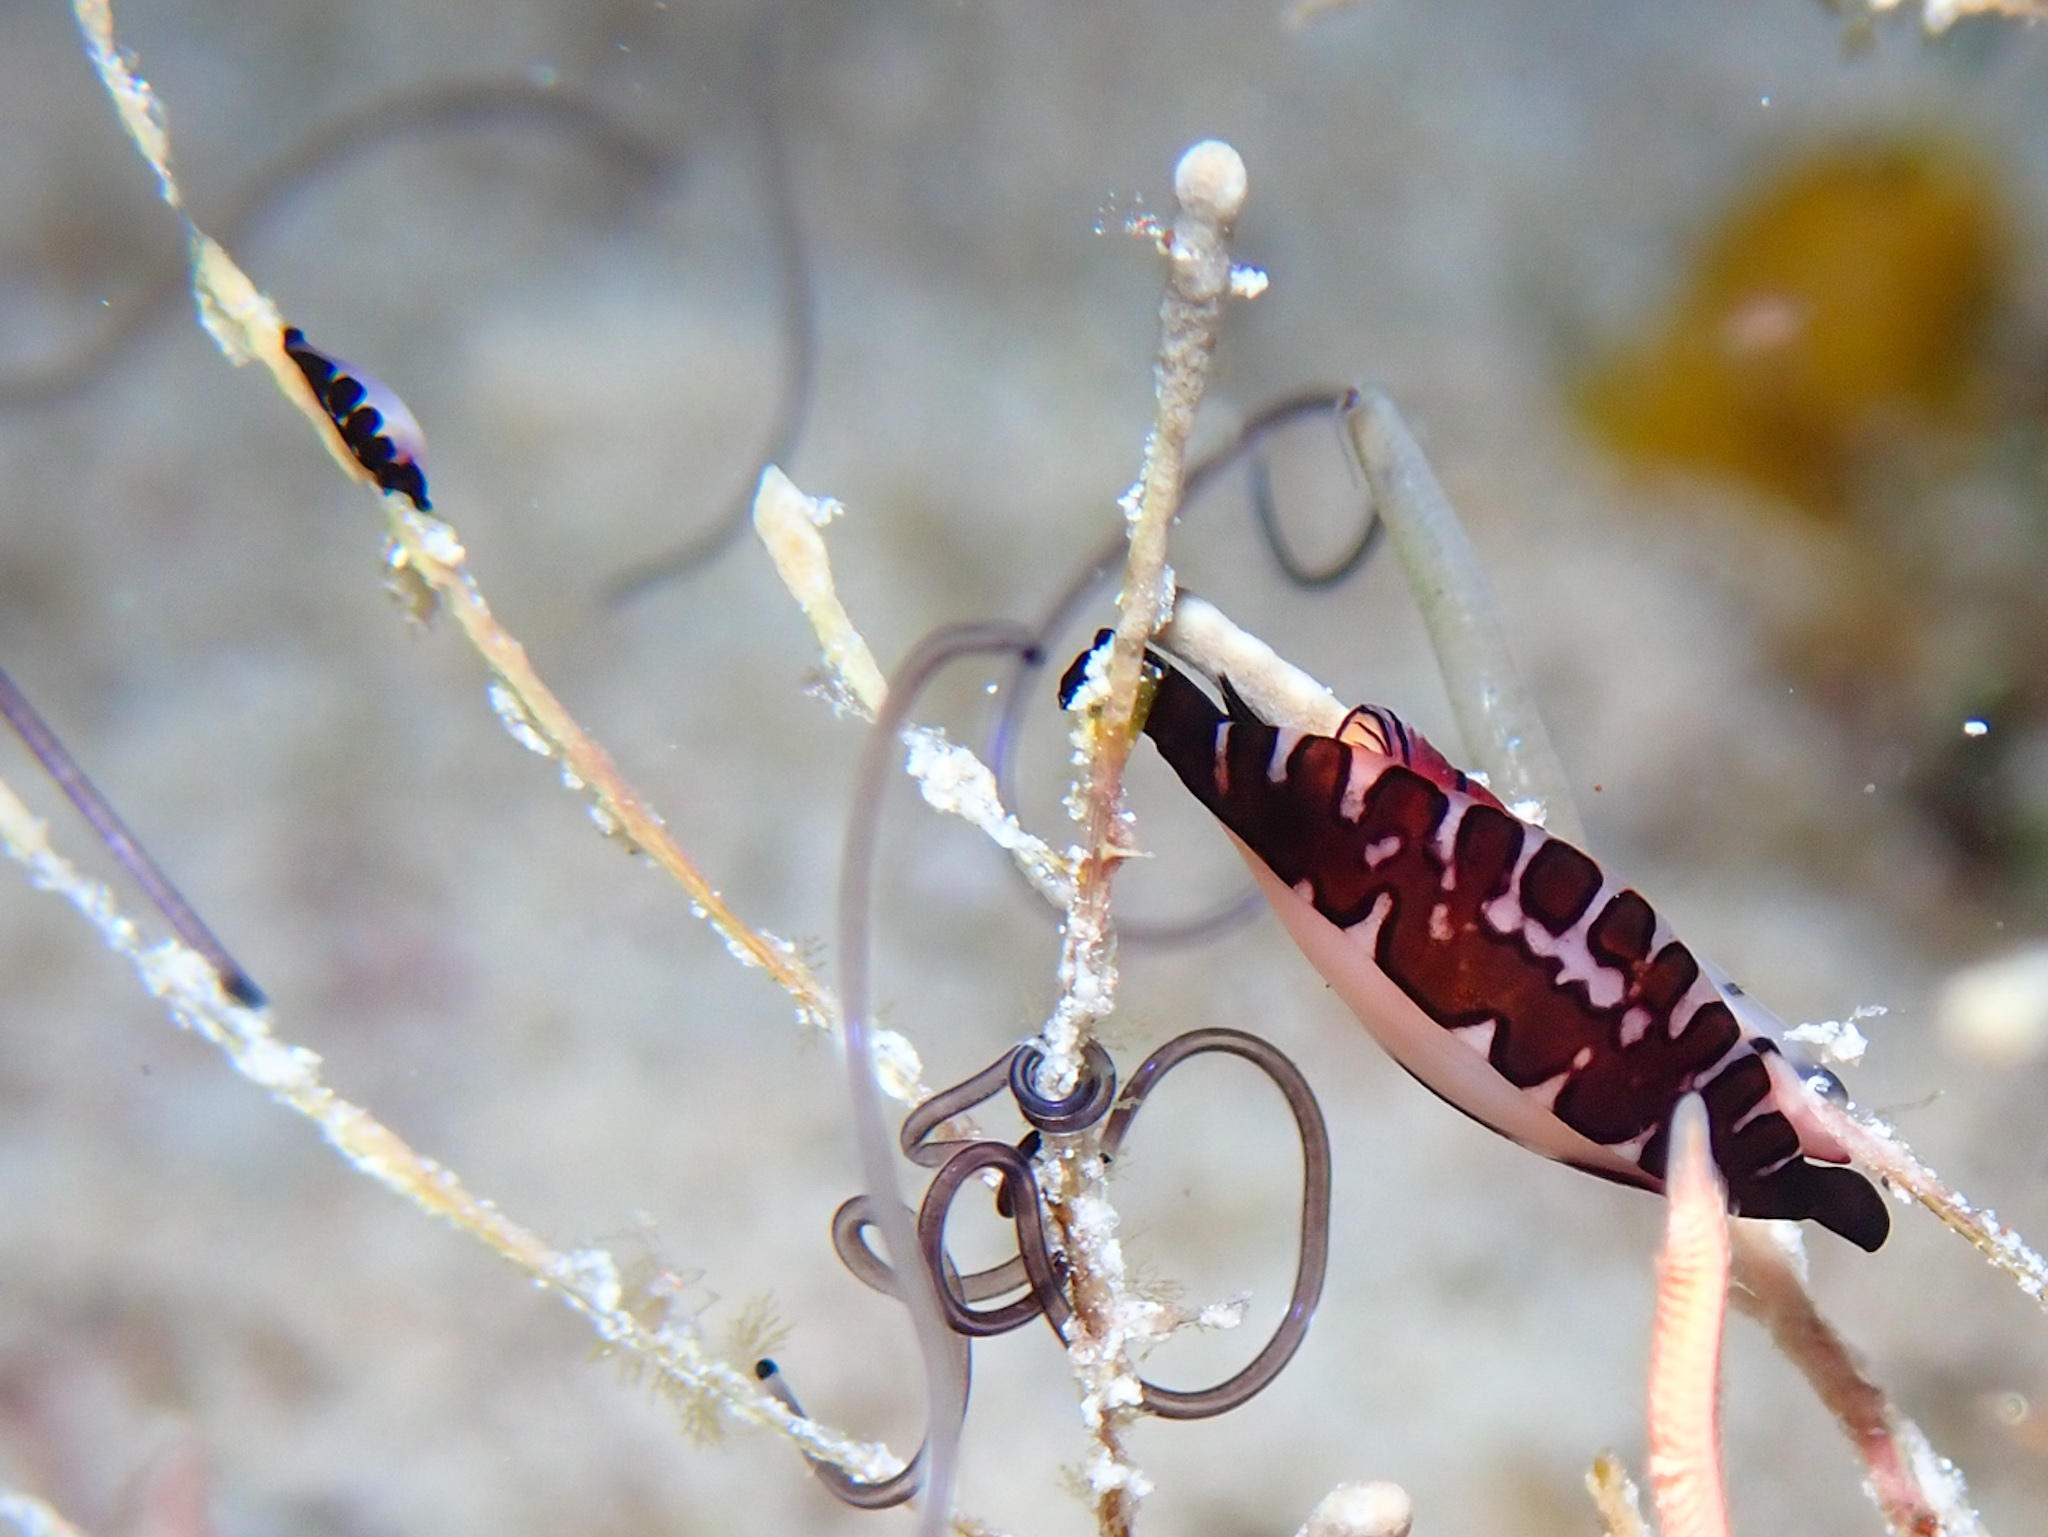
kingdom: Animalia
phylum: Mollusca
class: Gastropoda
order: Littorinimorpha
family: Ovulidae
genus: Cyphoma
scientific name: Cyphoma cassidyae
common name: Black morph cyphoma
